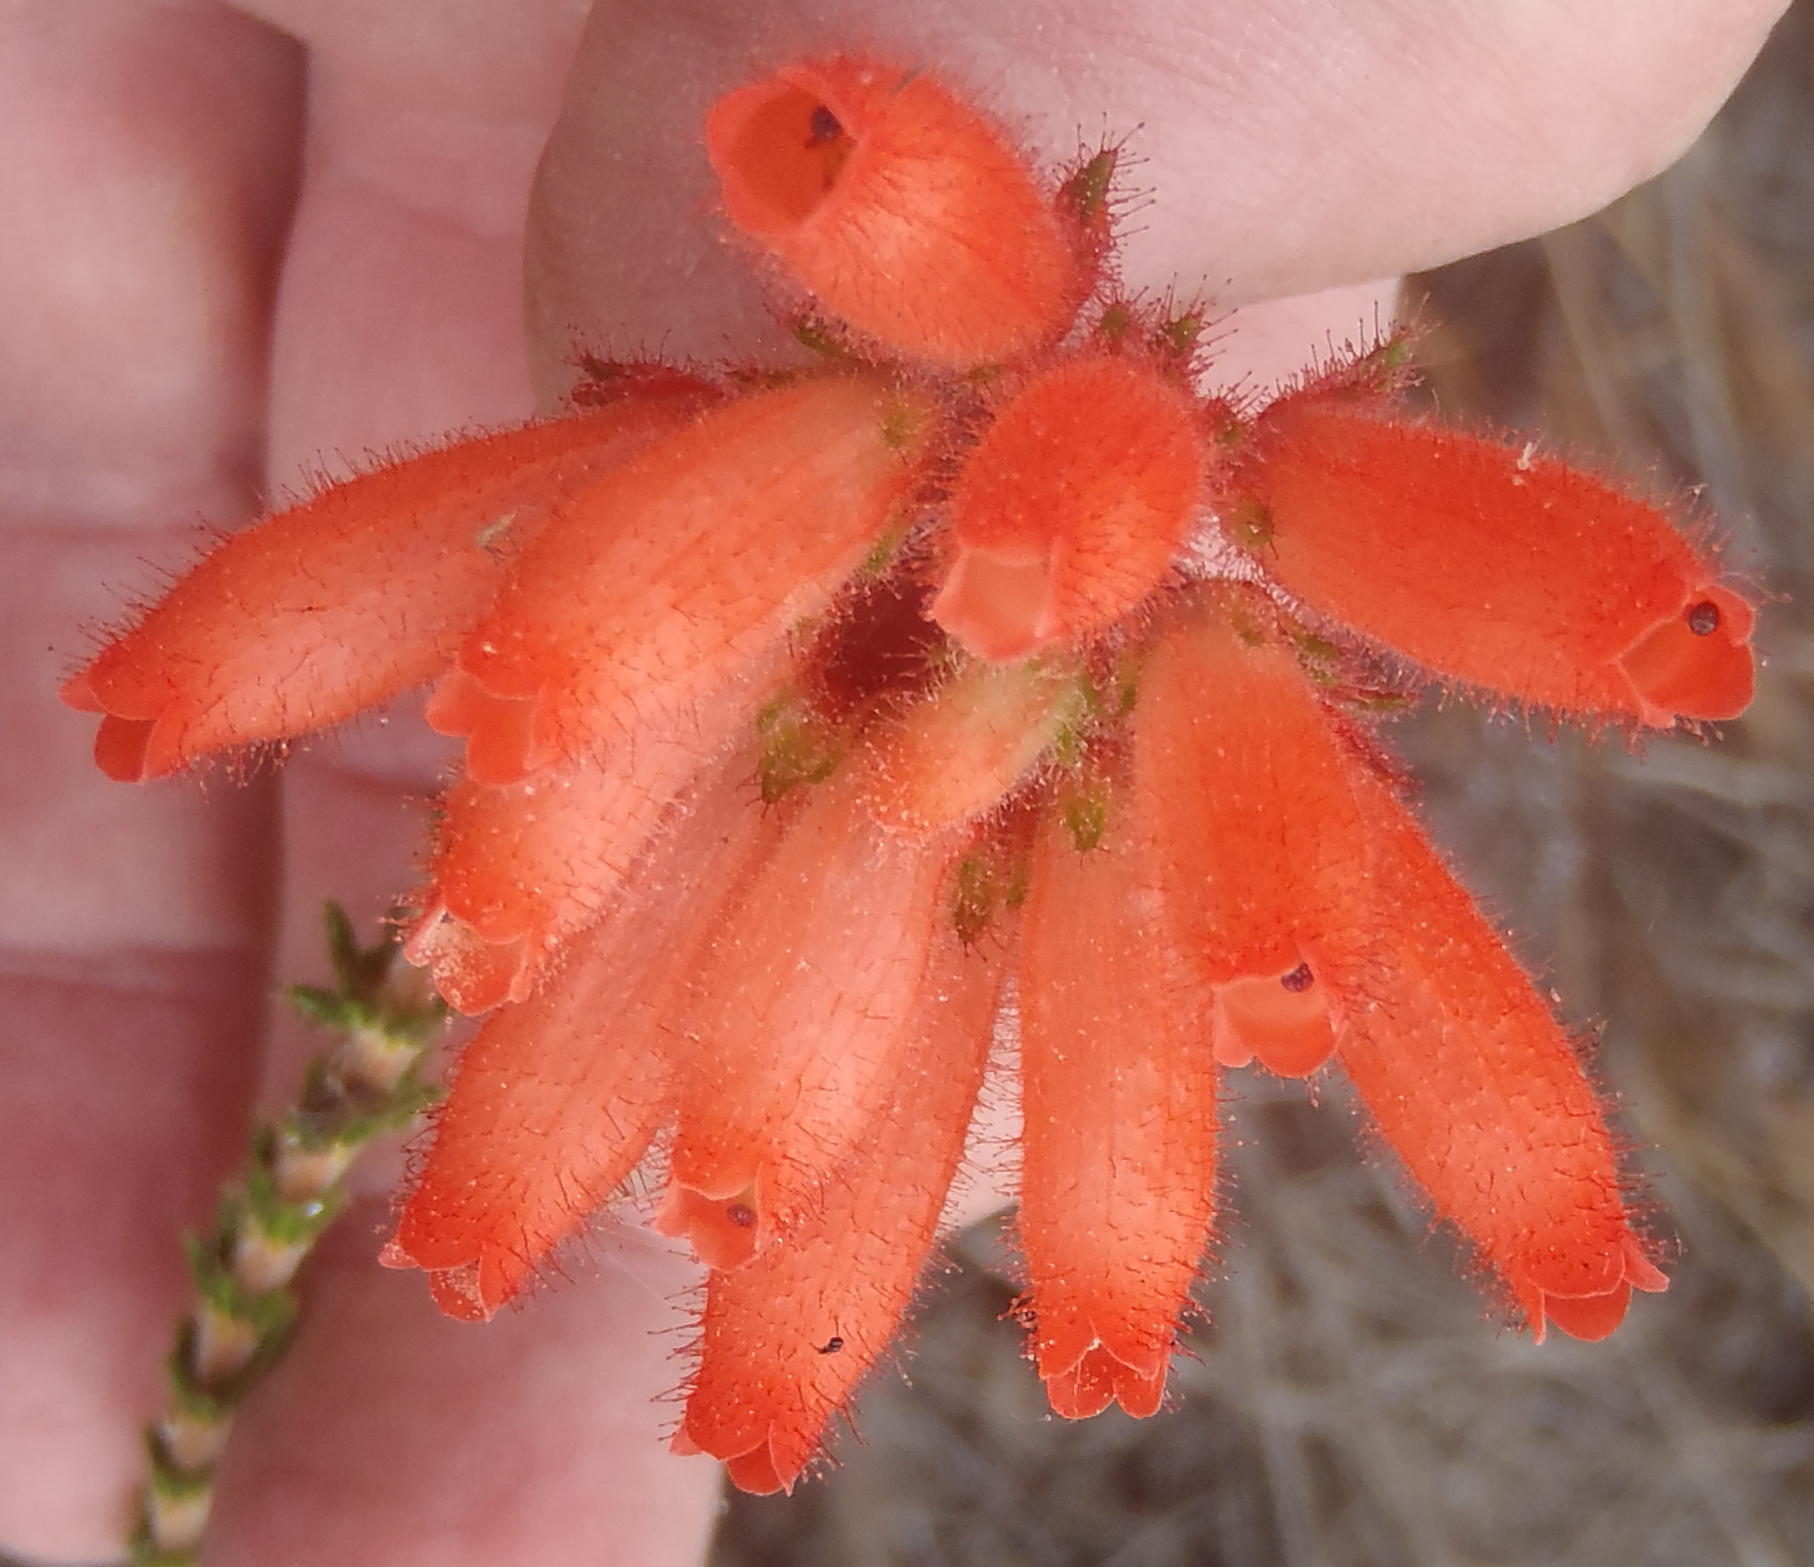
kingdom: Plantae
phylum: Tracheophyta
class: Magnoliopsida
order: Ericales
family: Ericaceae
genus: Erica
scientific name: Erica cerinthoides
